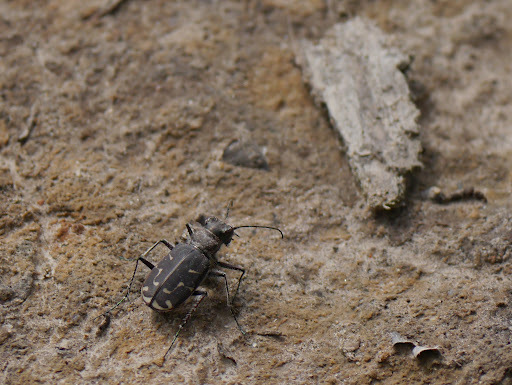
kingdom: Animalia
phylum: Arthropoda
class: Insecta
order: Coleoptera
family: Carabidae
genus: Cicindela
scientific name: Cicindela tranquebarica
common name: Oblique-lined tiger beetle
